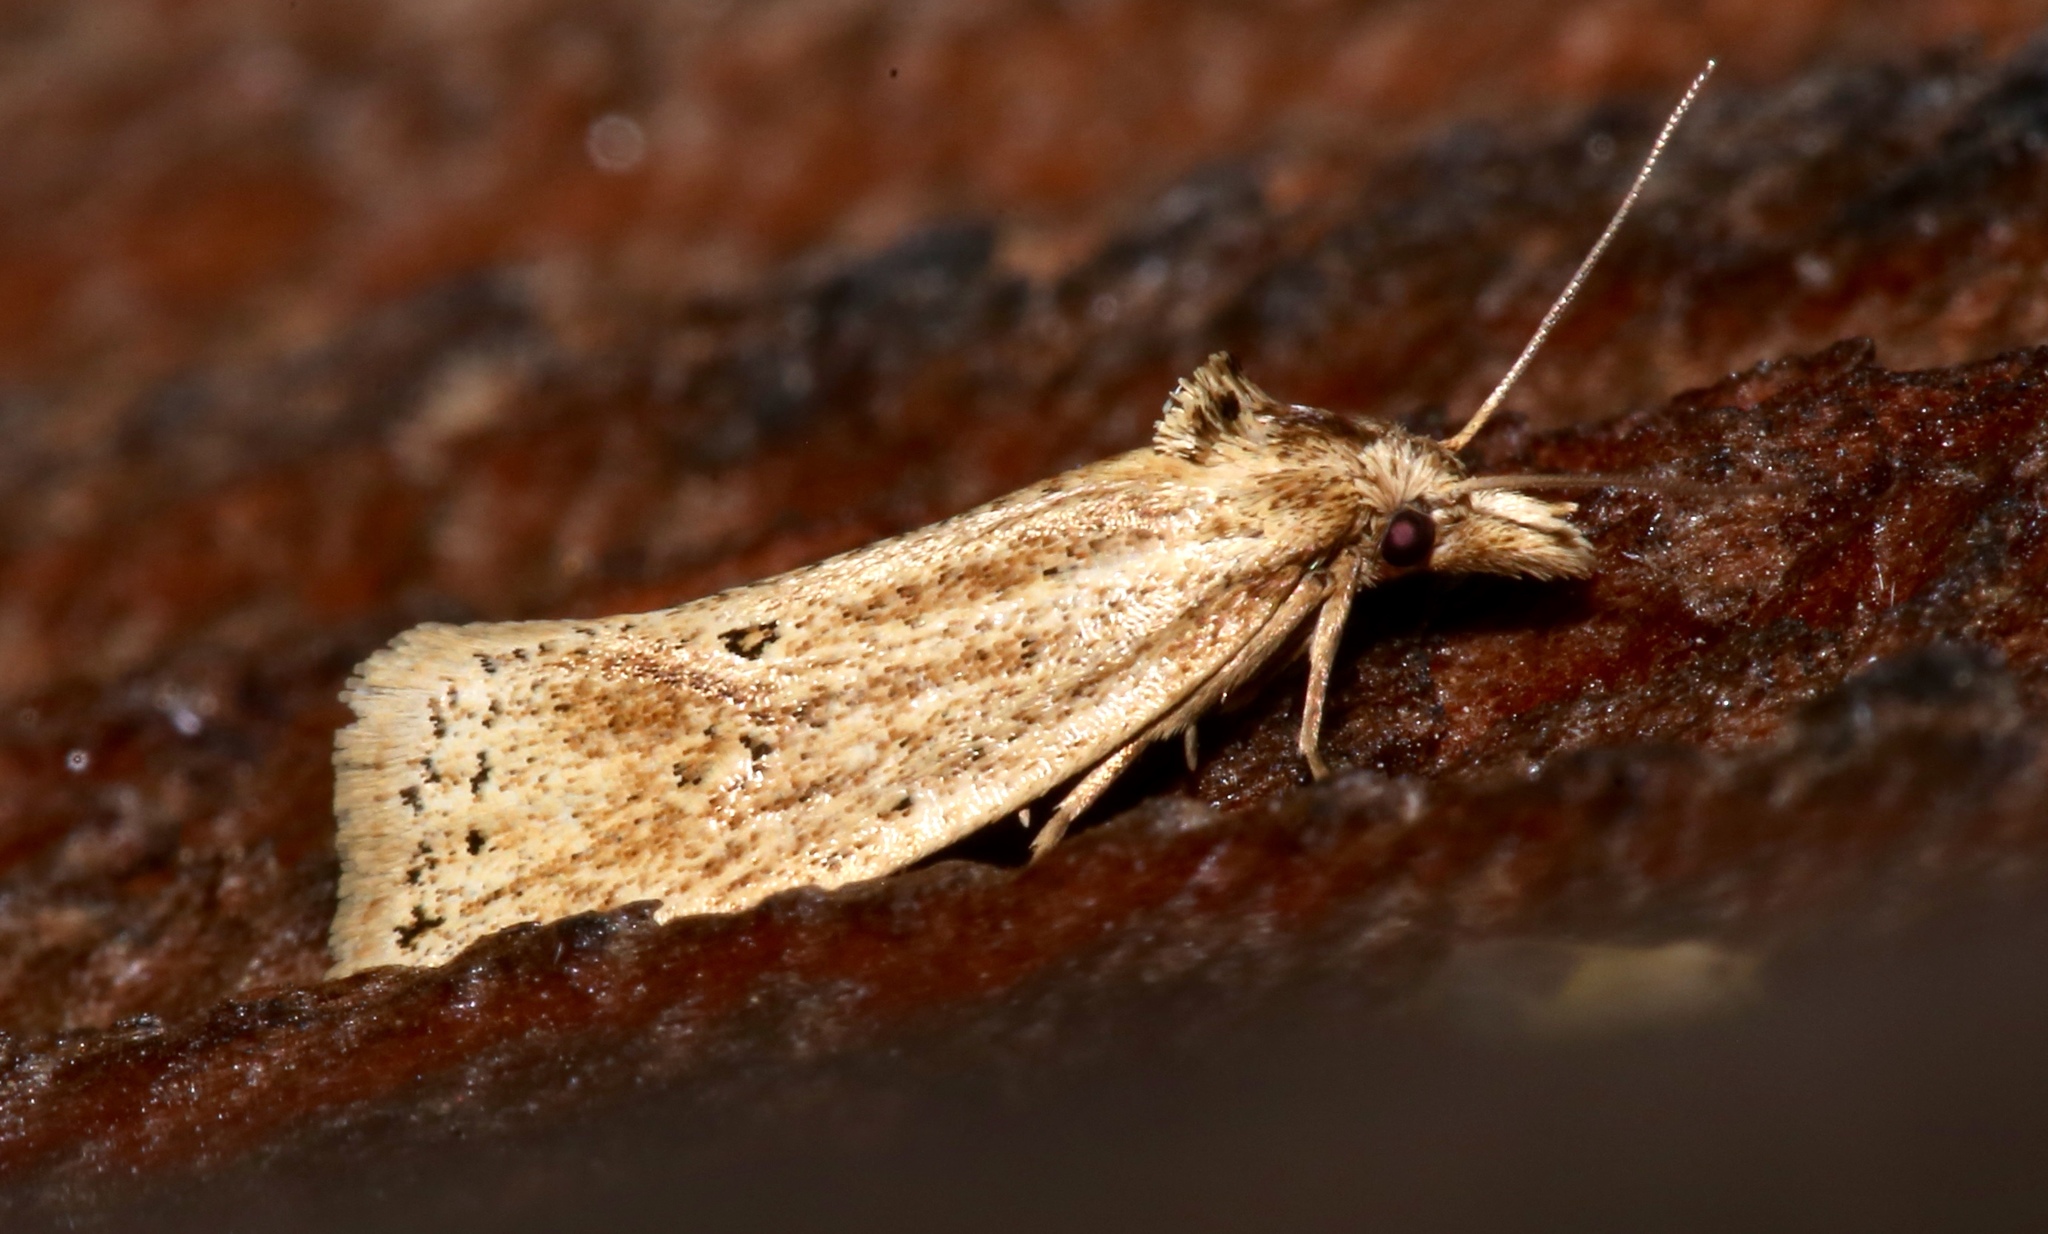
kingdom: Animalia
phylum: Arthropoda
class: Insecta
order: Lepidoptera
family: Tortricidae
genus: Aethes
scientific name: Aethes atomosana
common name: Two-spotted aethes
